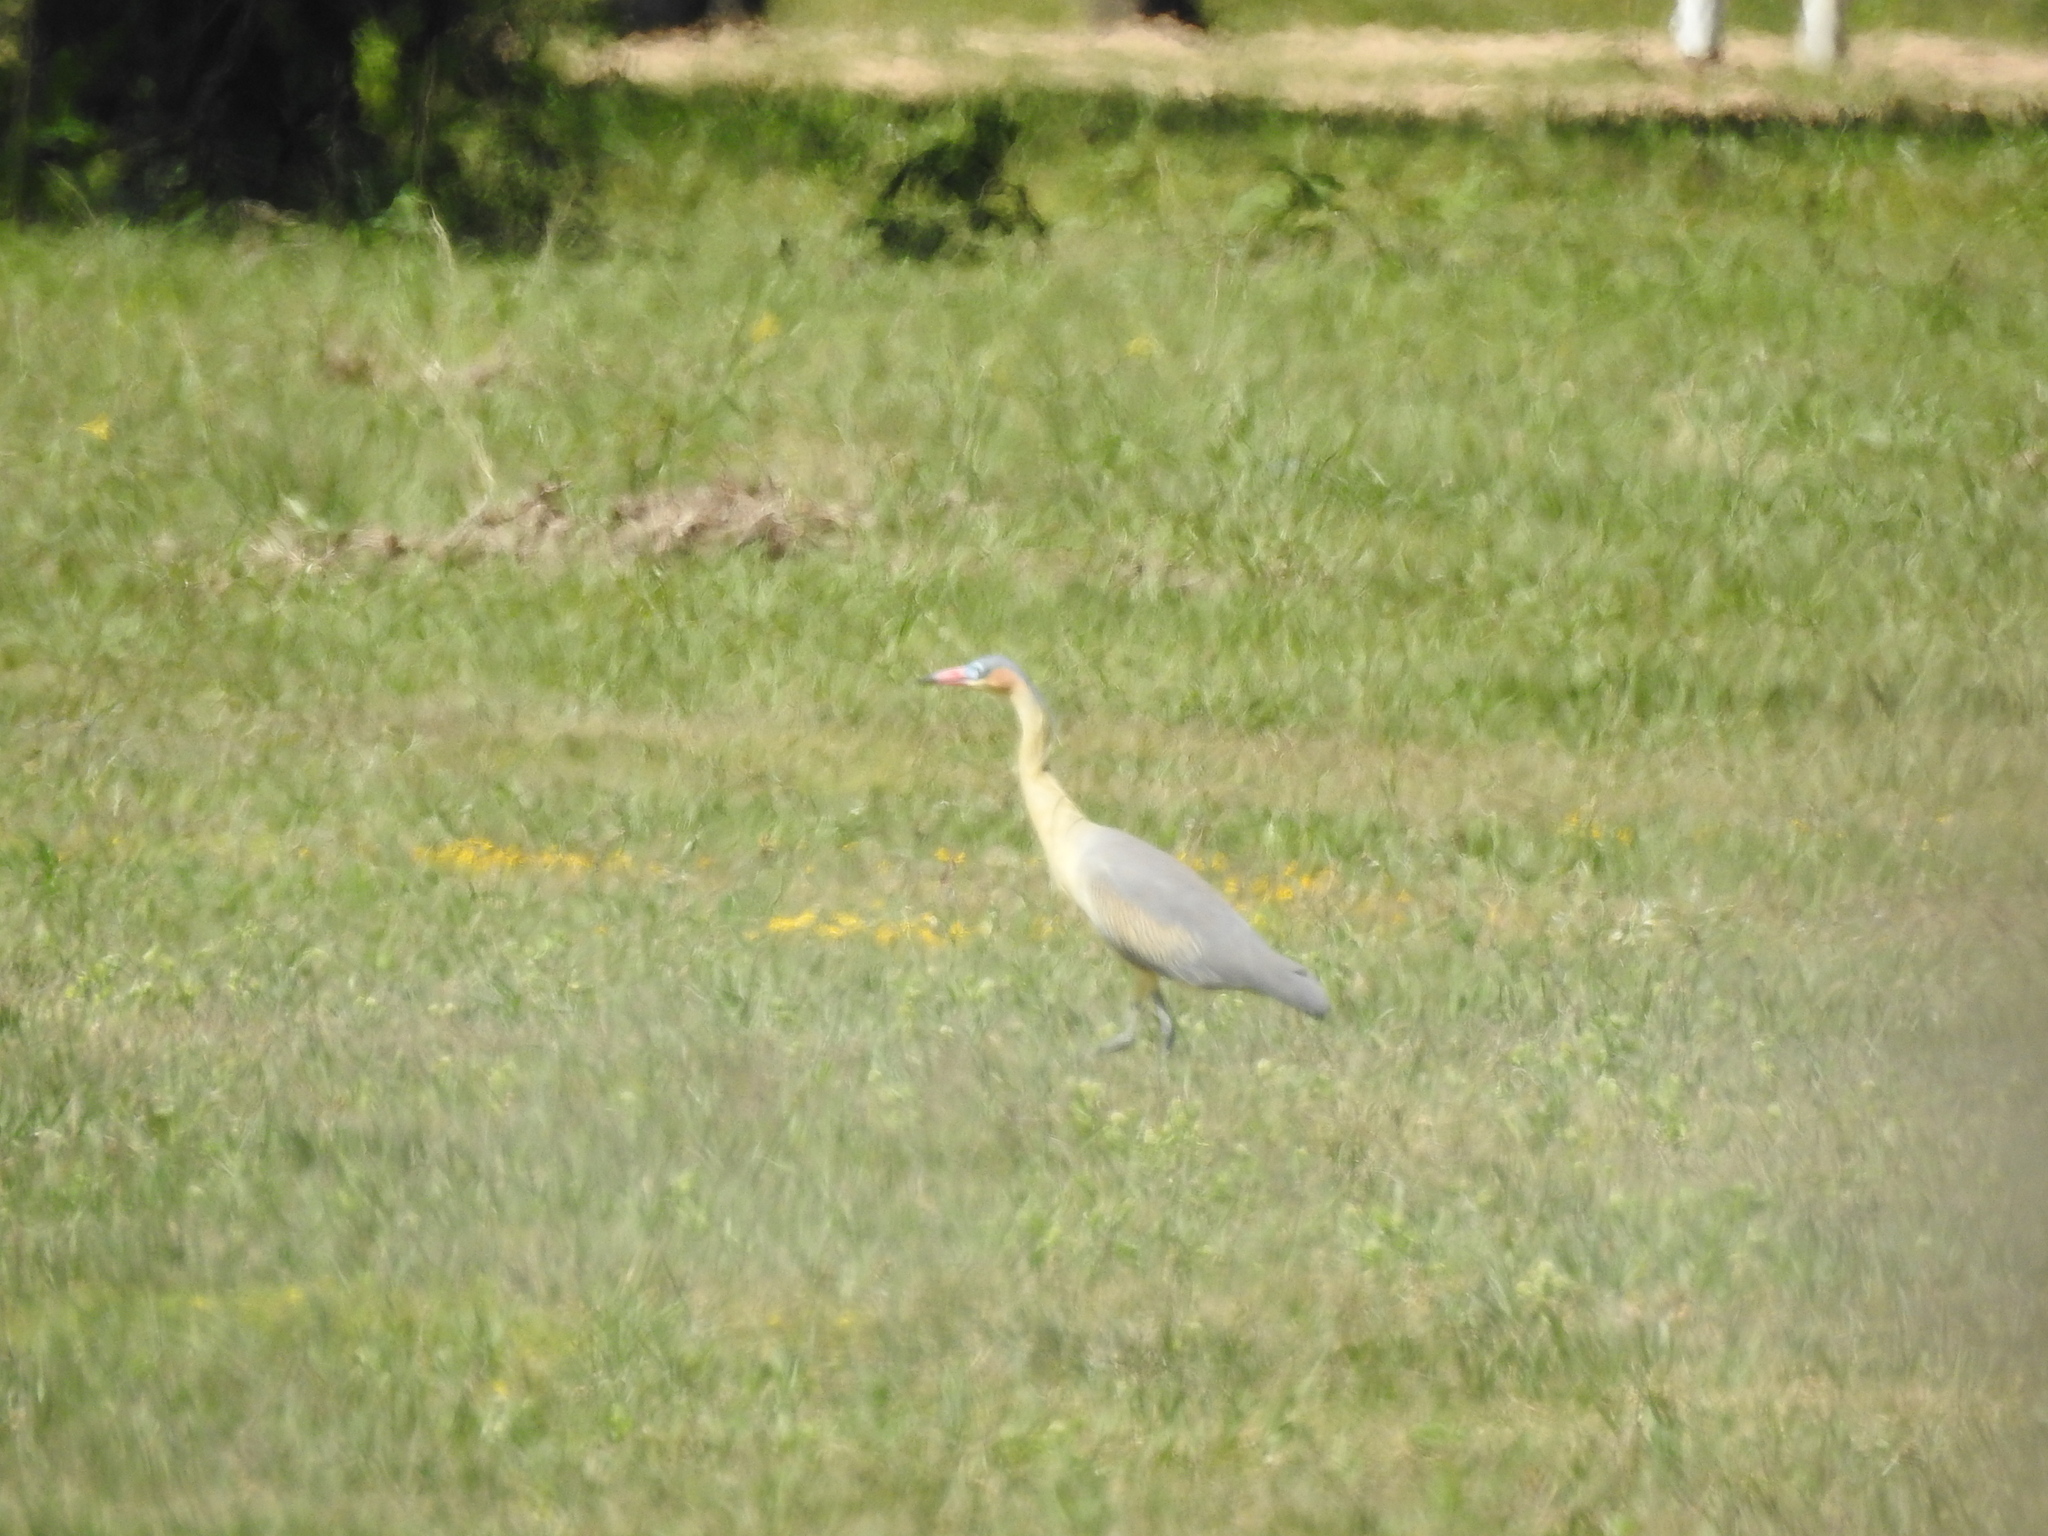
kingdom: Animalia
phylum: Chordata
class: Aves
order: Pelecaniformes
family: Ardeidae
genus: Syrigma
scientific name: Syrigma sibilatrix
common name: Whistling heron
